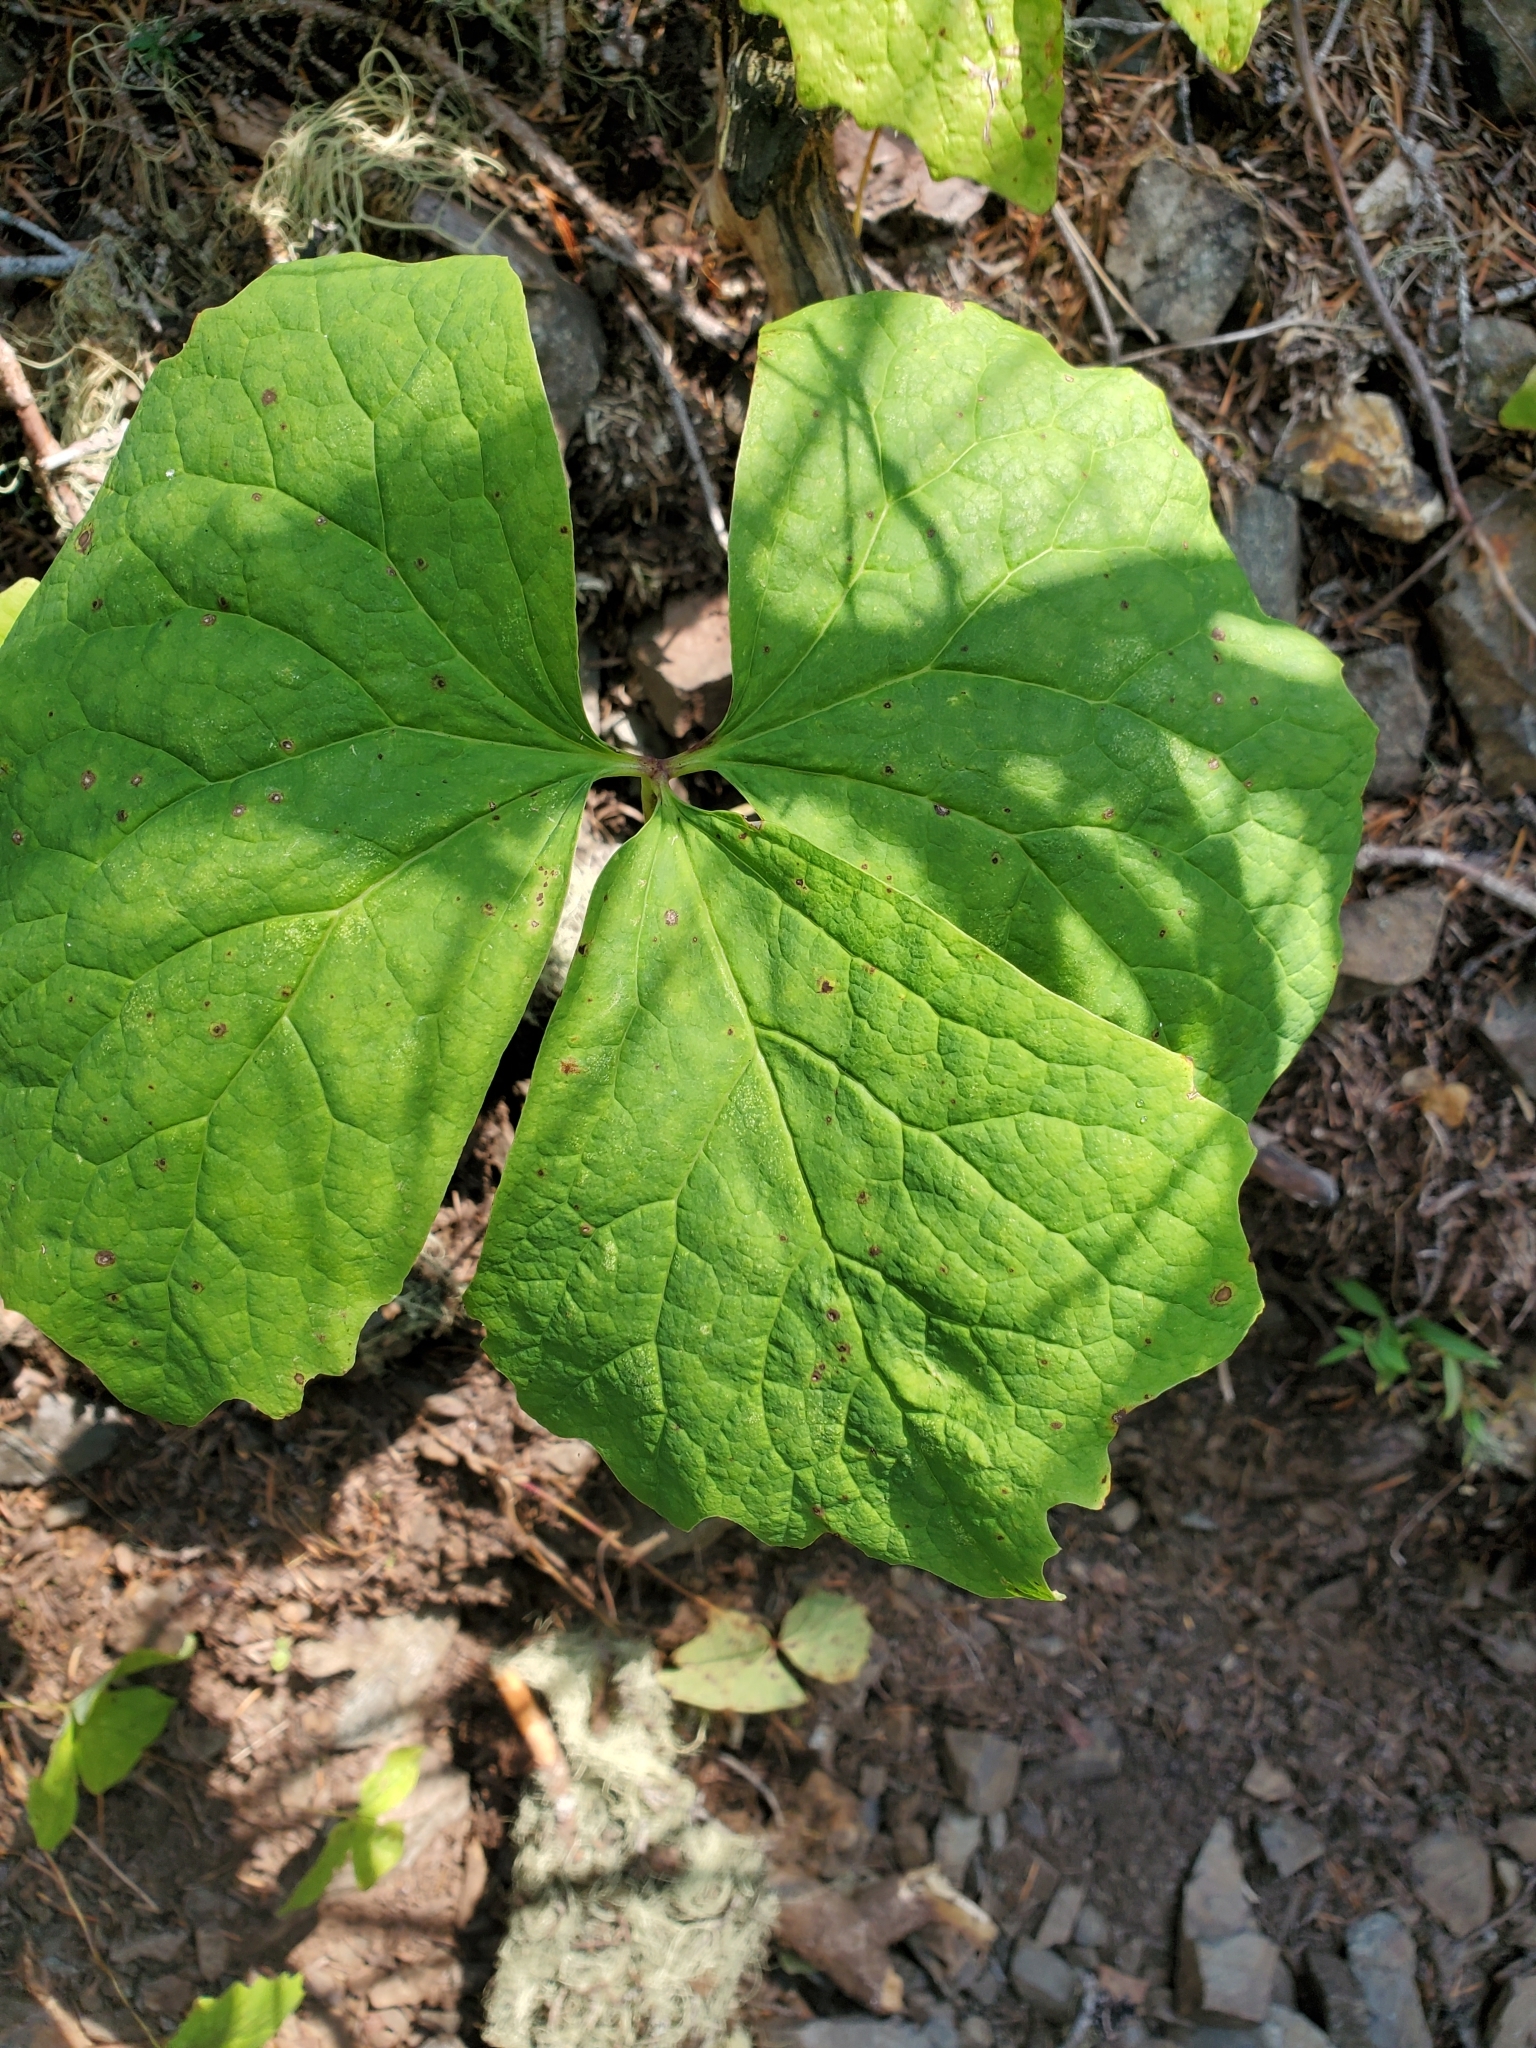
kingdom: Plantae
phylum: Tracheophyta
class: Magnoliopsida
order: Ranunculales
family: Berberidaceae
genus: Achlys
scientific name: Achlys triphylla
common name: Vanilla-leaf
